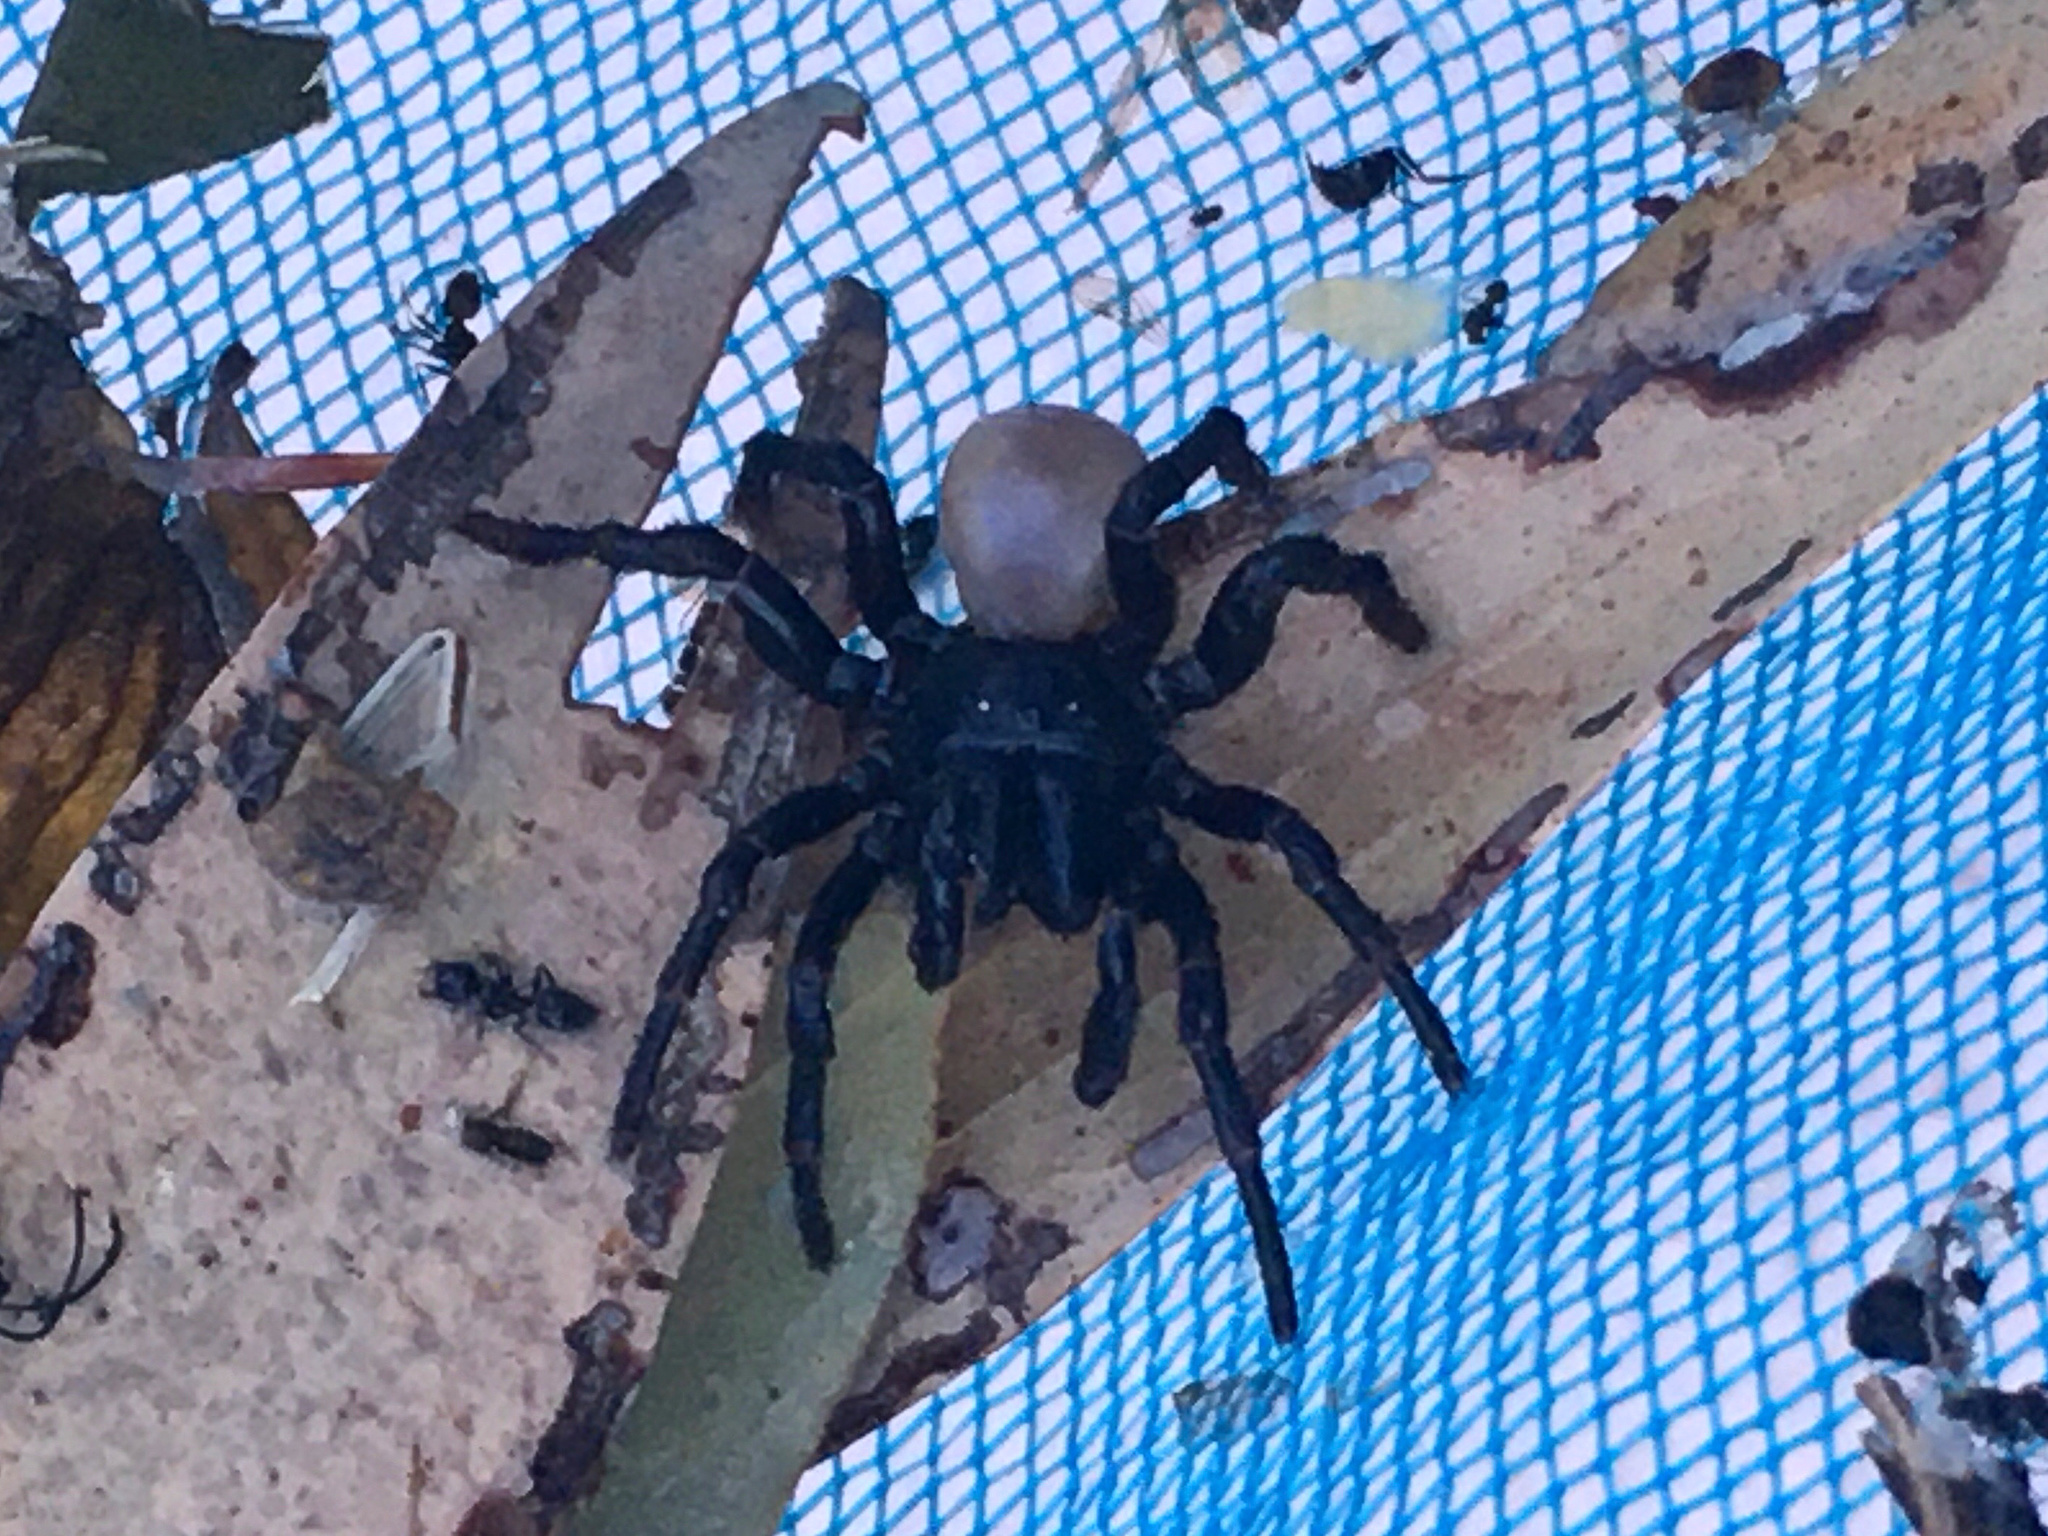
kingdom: Animalia
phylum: Arthropoda
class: Arachnida
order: Araneae
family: Actinopodidae
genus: Missulena
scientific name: Missulena bradleyi
